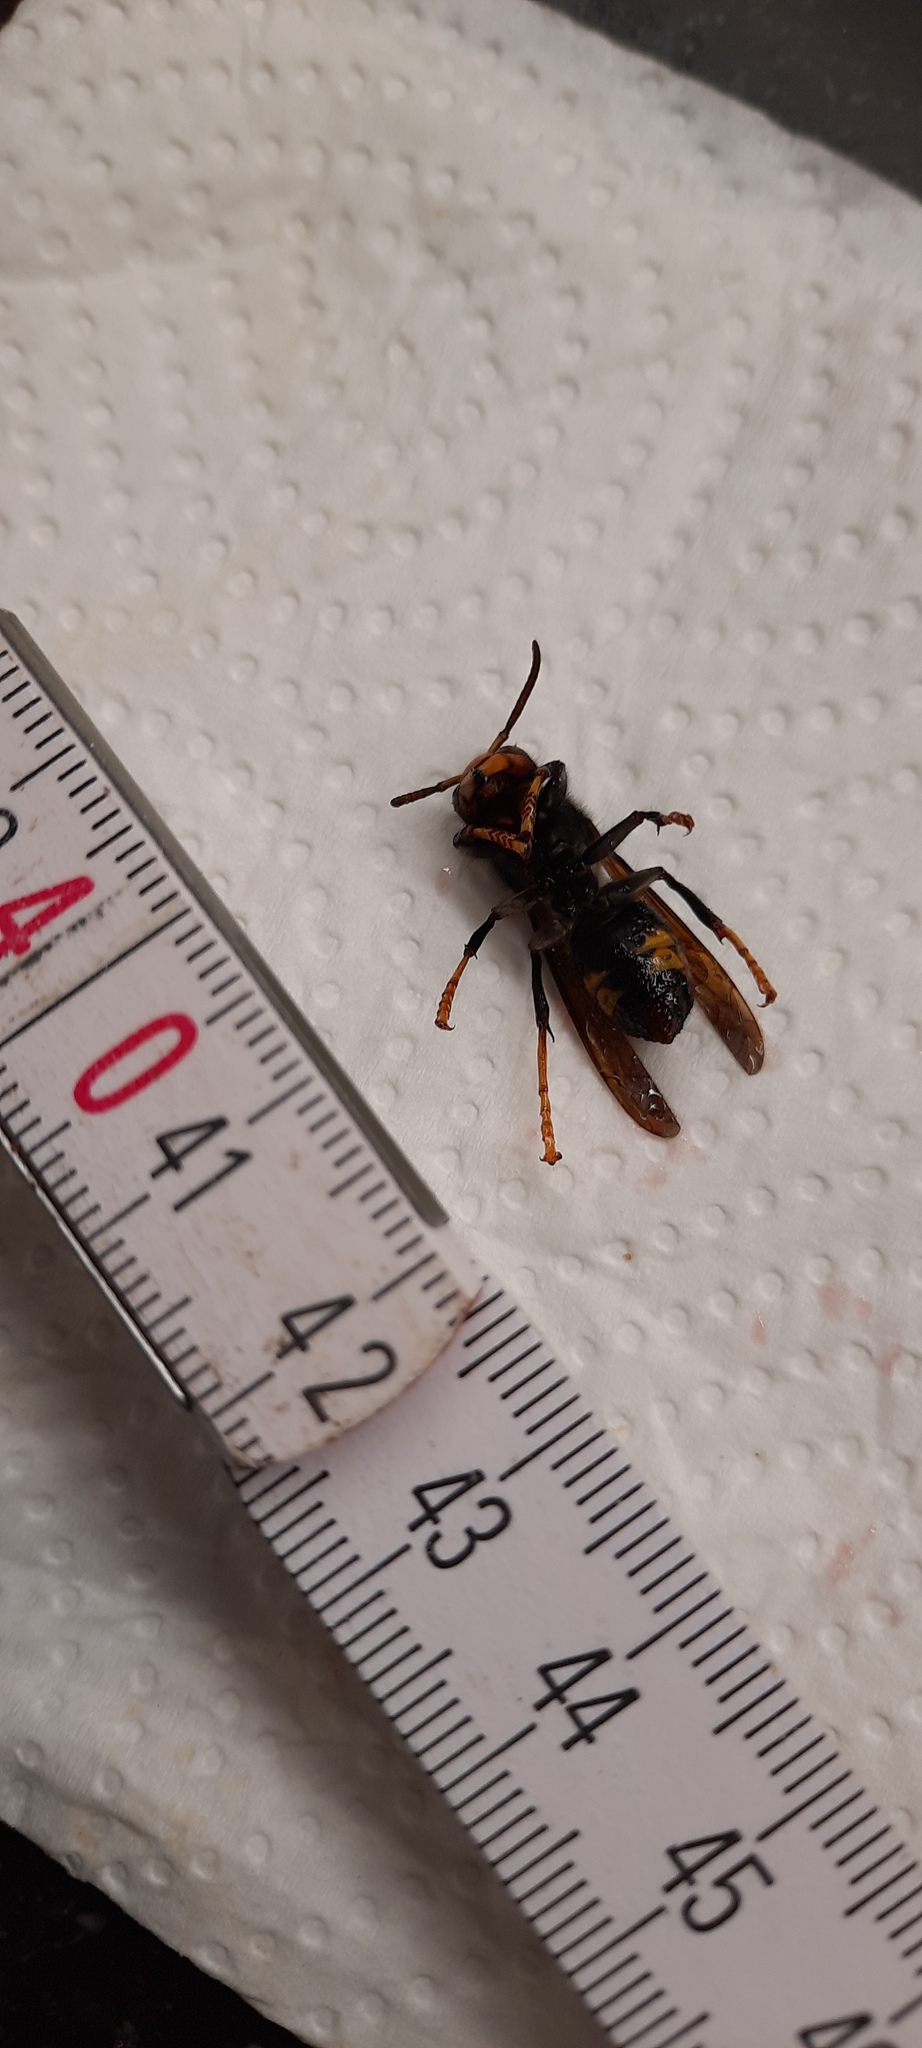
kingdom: Animalia
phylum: Arthropoda
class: Insecta
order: Hymenoptera
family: Vespidae
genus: Vespa
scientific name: Vespa velutina
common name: Asian hornet
